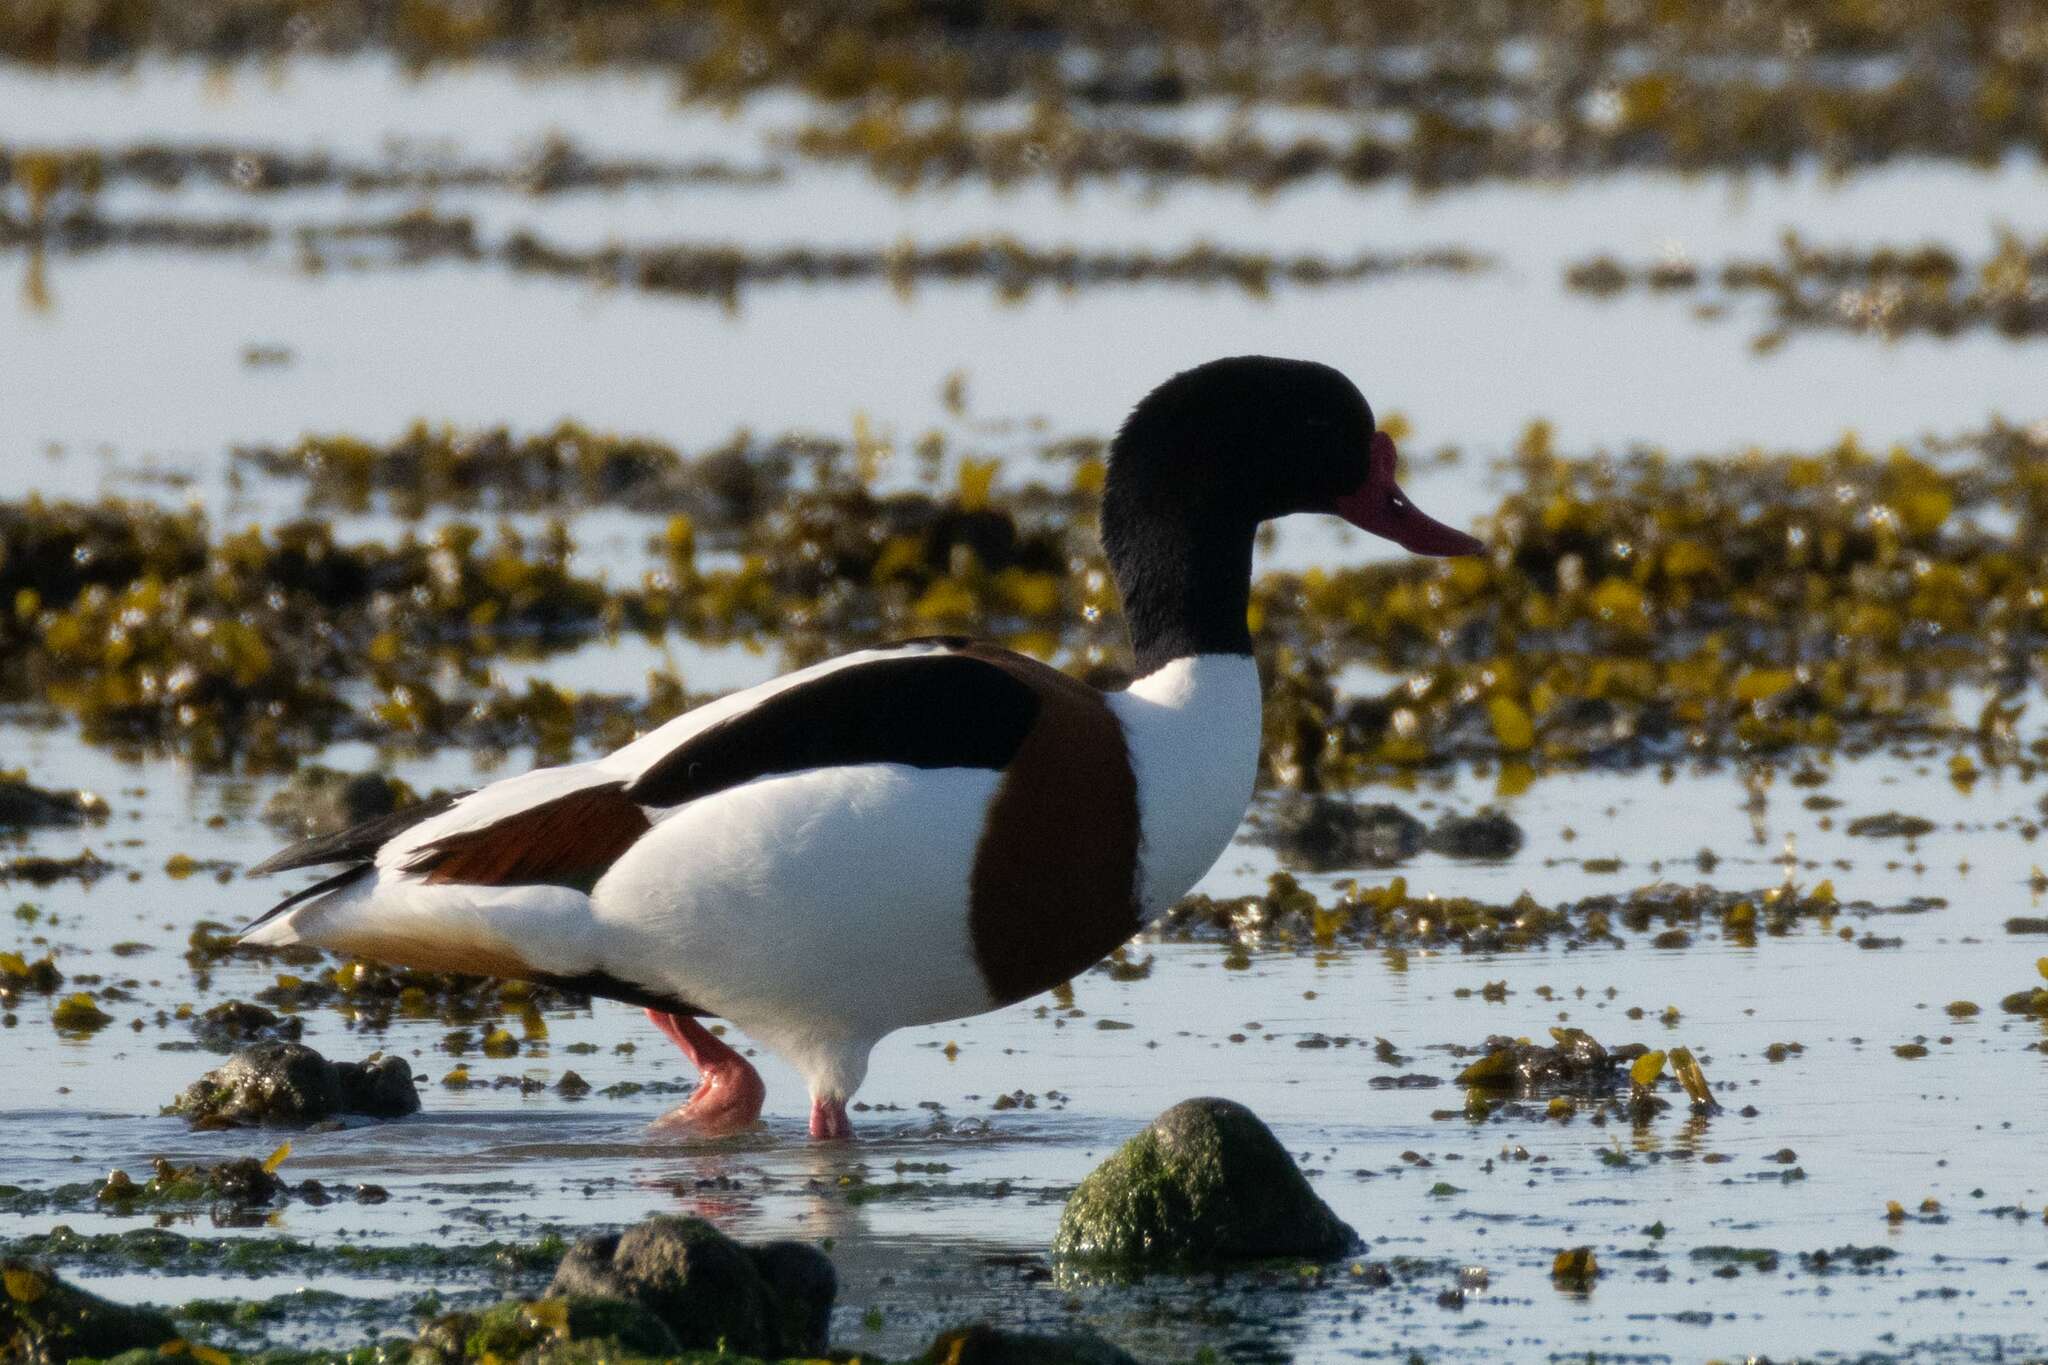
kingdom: Animalia
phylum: Chordata
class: Aves
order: Anseriformes
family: Anatidae
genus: Tadorna
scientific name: Tadorna tadorna
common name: Common shelduck
